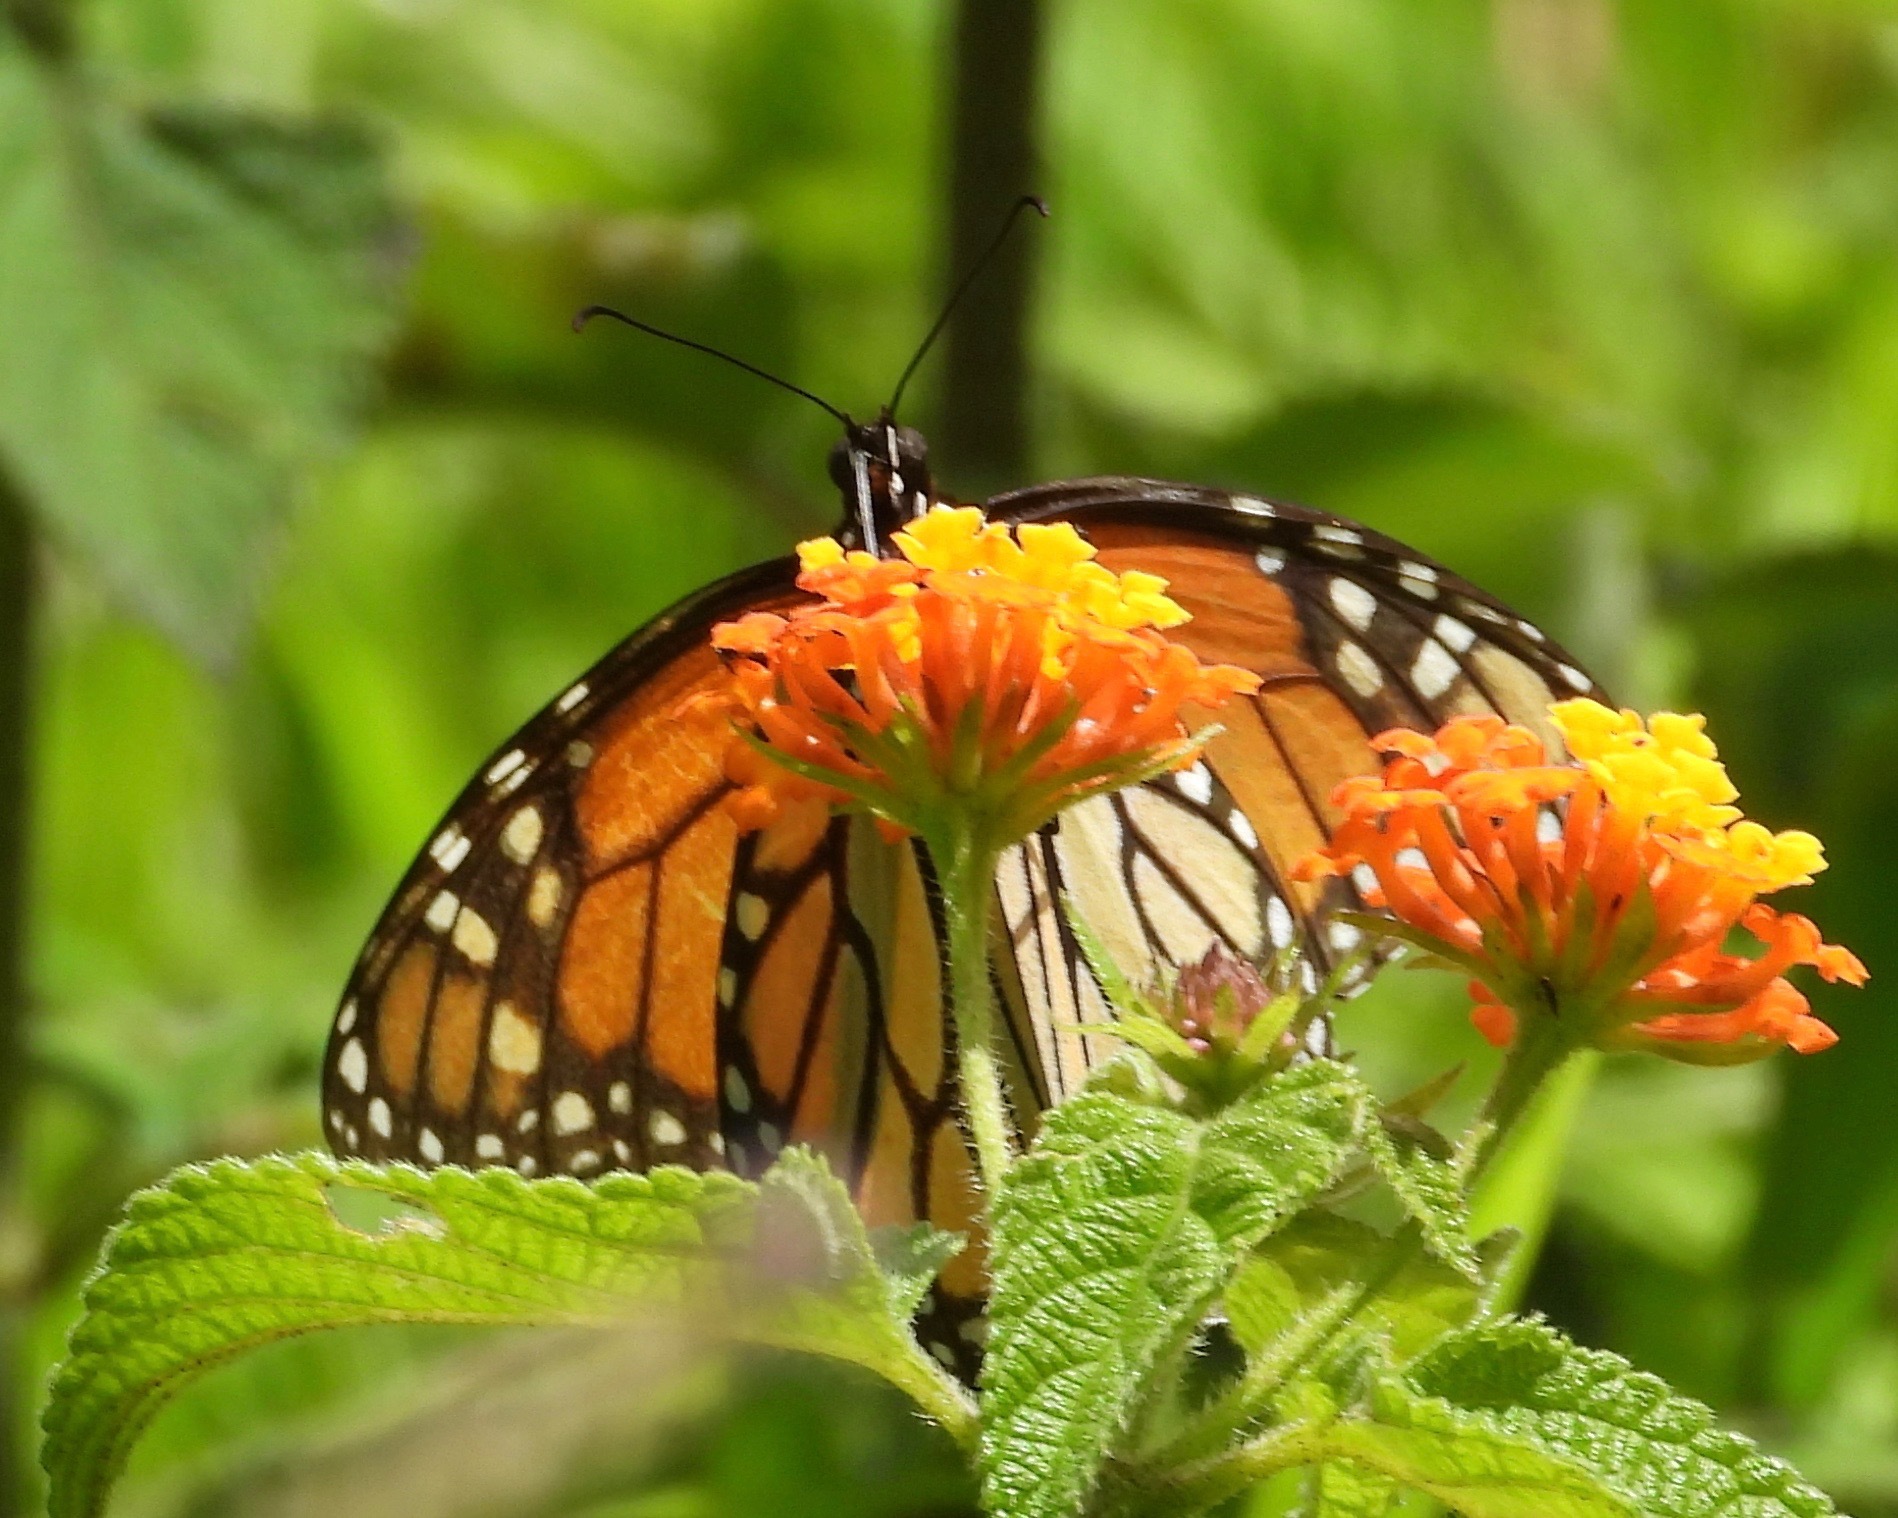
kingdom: Animalia
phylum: Arthropoda
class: Insecta
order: Lepidoptera
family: Nymphalidae
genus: Danaus
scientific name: Danaus plexippus
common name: Monarch
